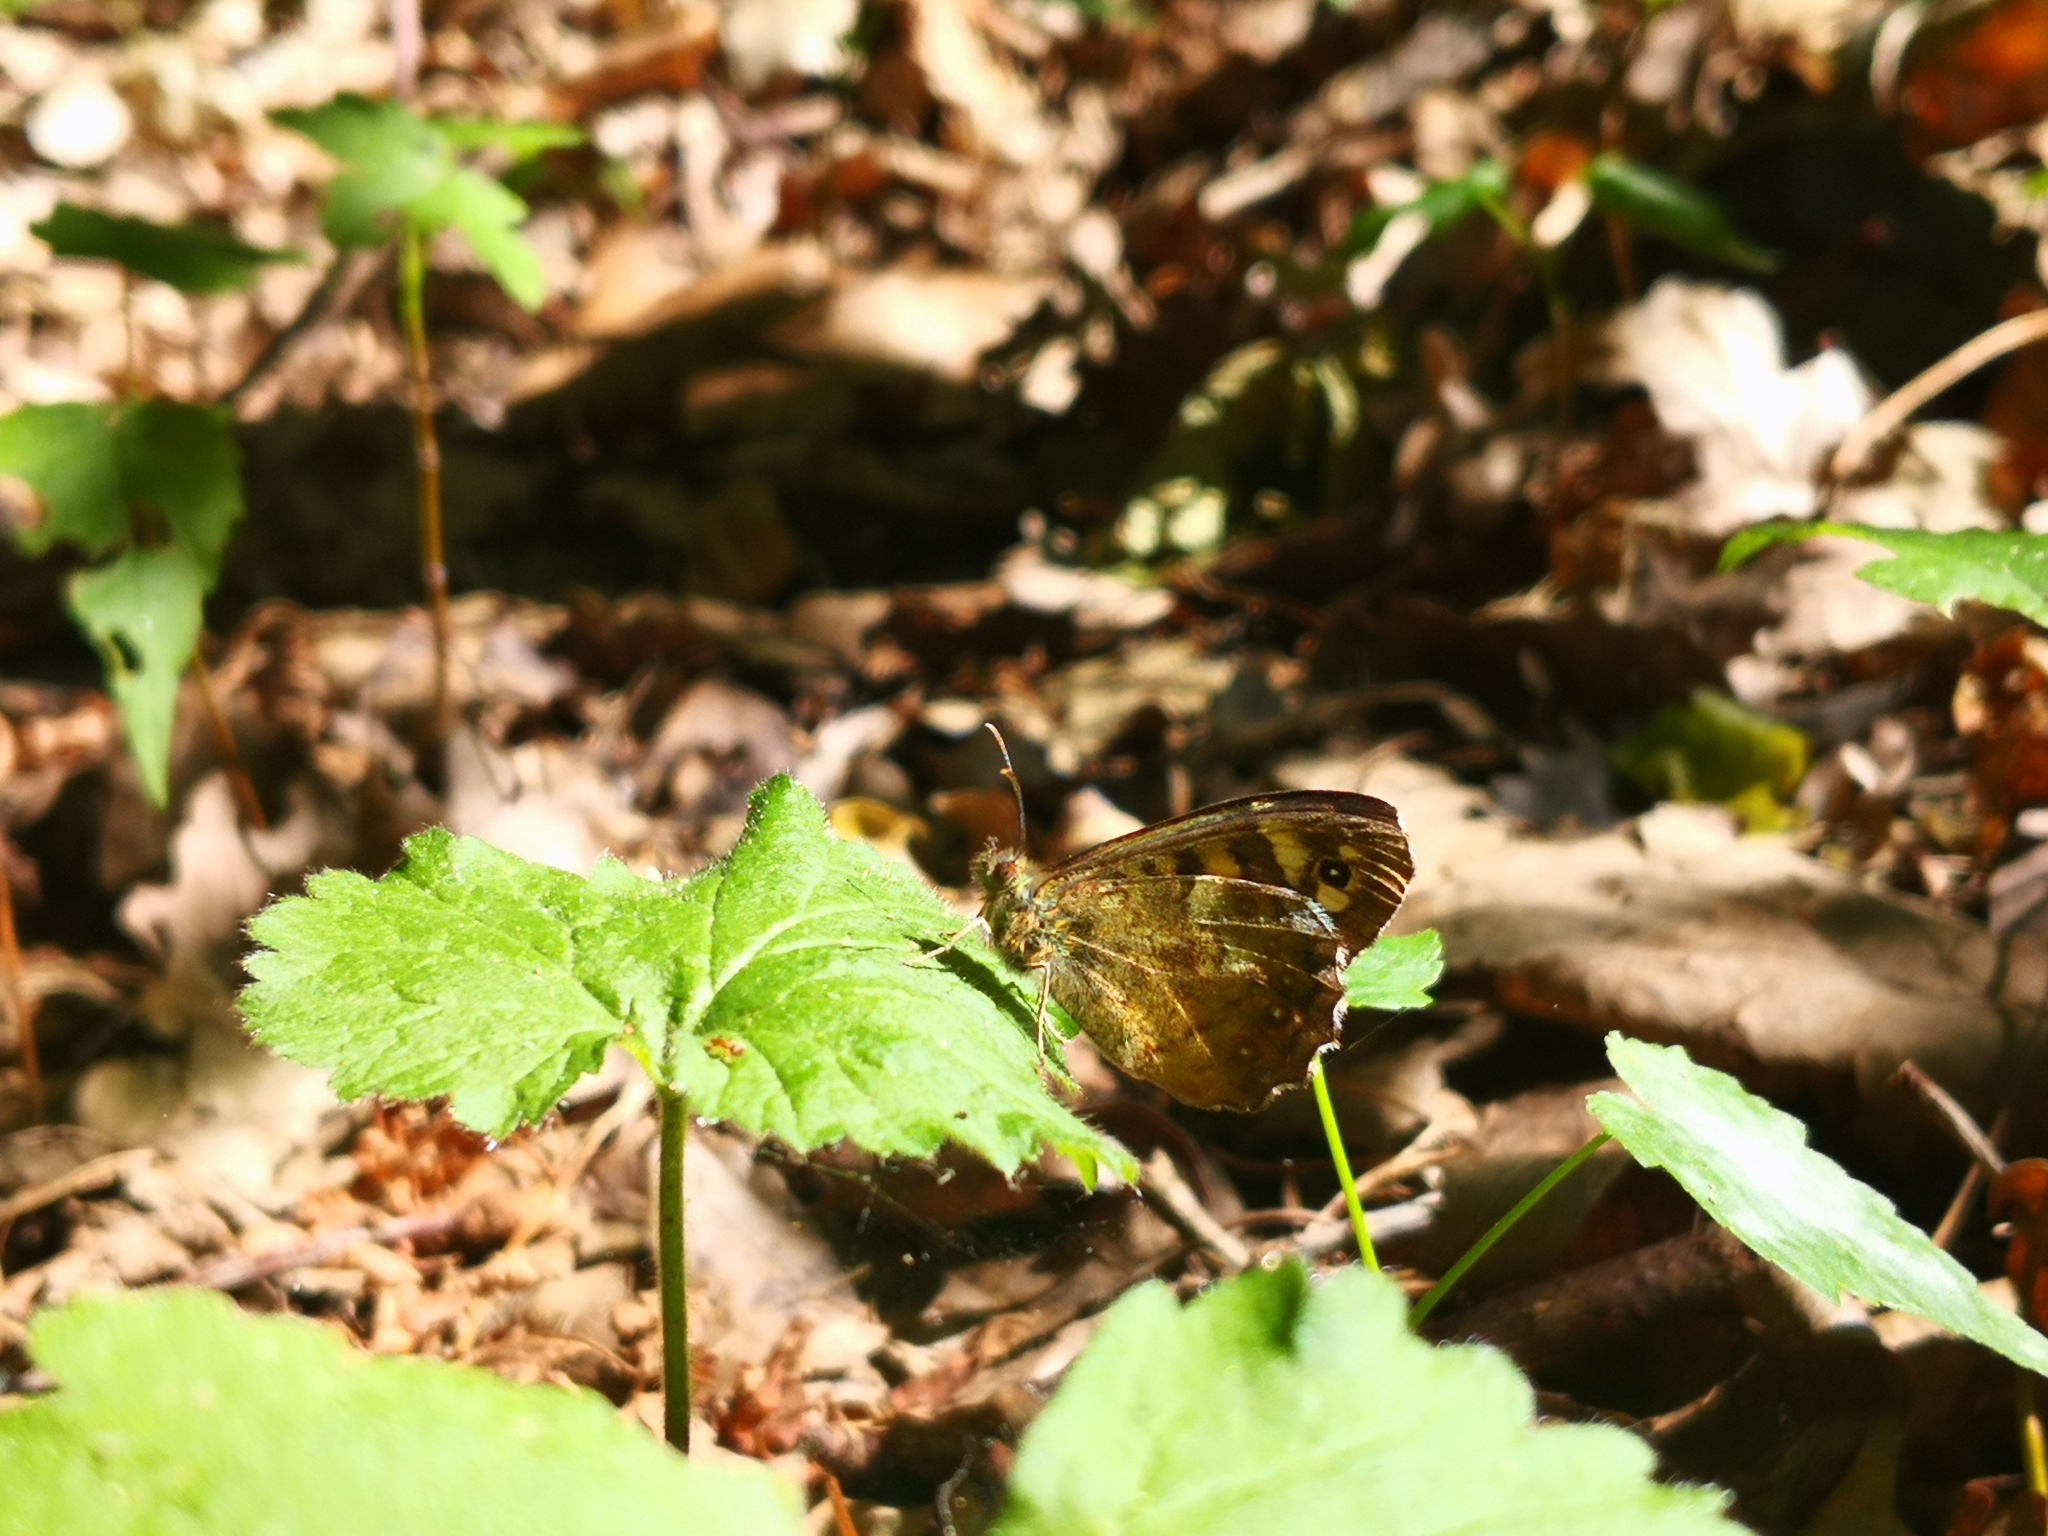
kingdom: Animalia
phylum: Arthropoda
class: Insecta
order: Lepidoptera
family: Nymphalidae
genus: Pararge
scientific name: Pararge aegeria
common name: Speckled wood
